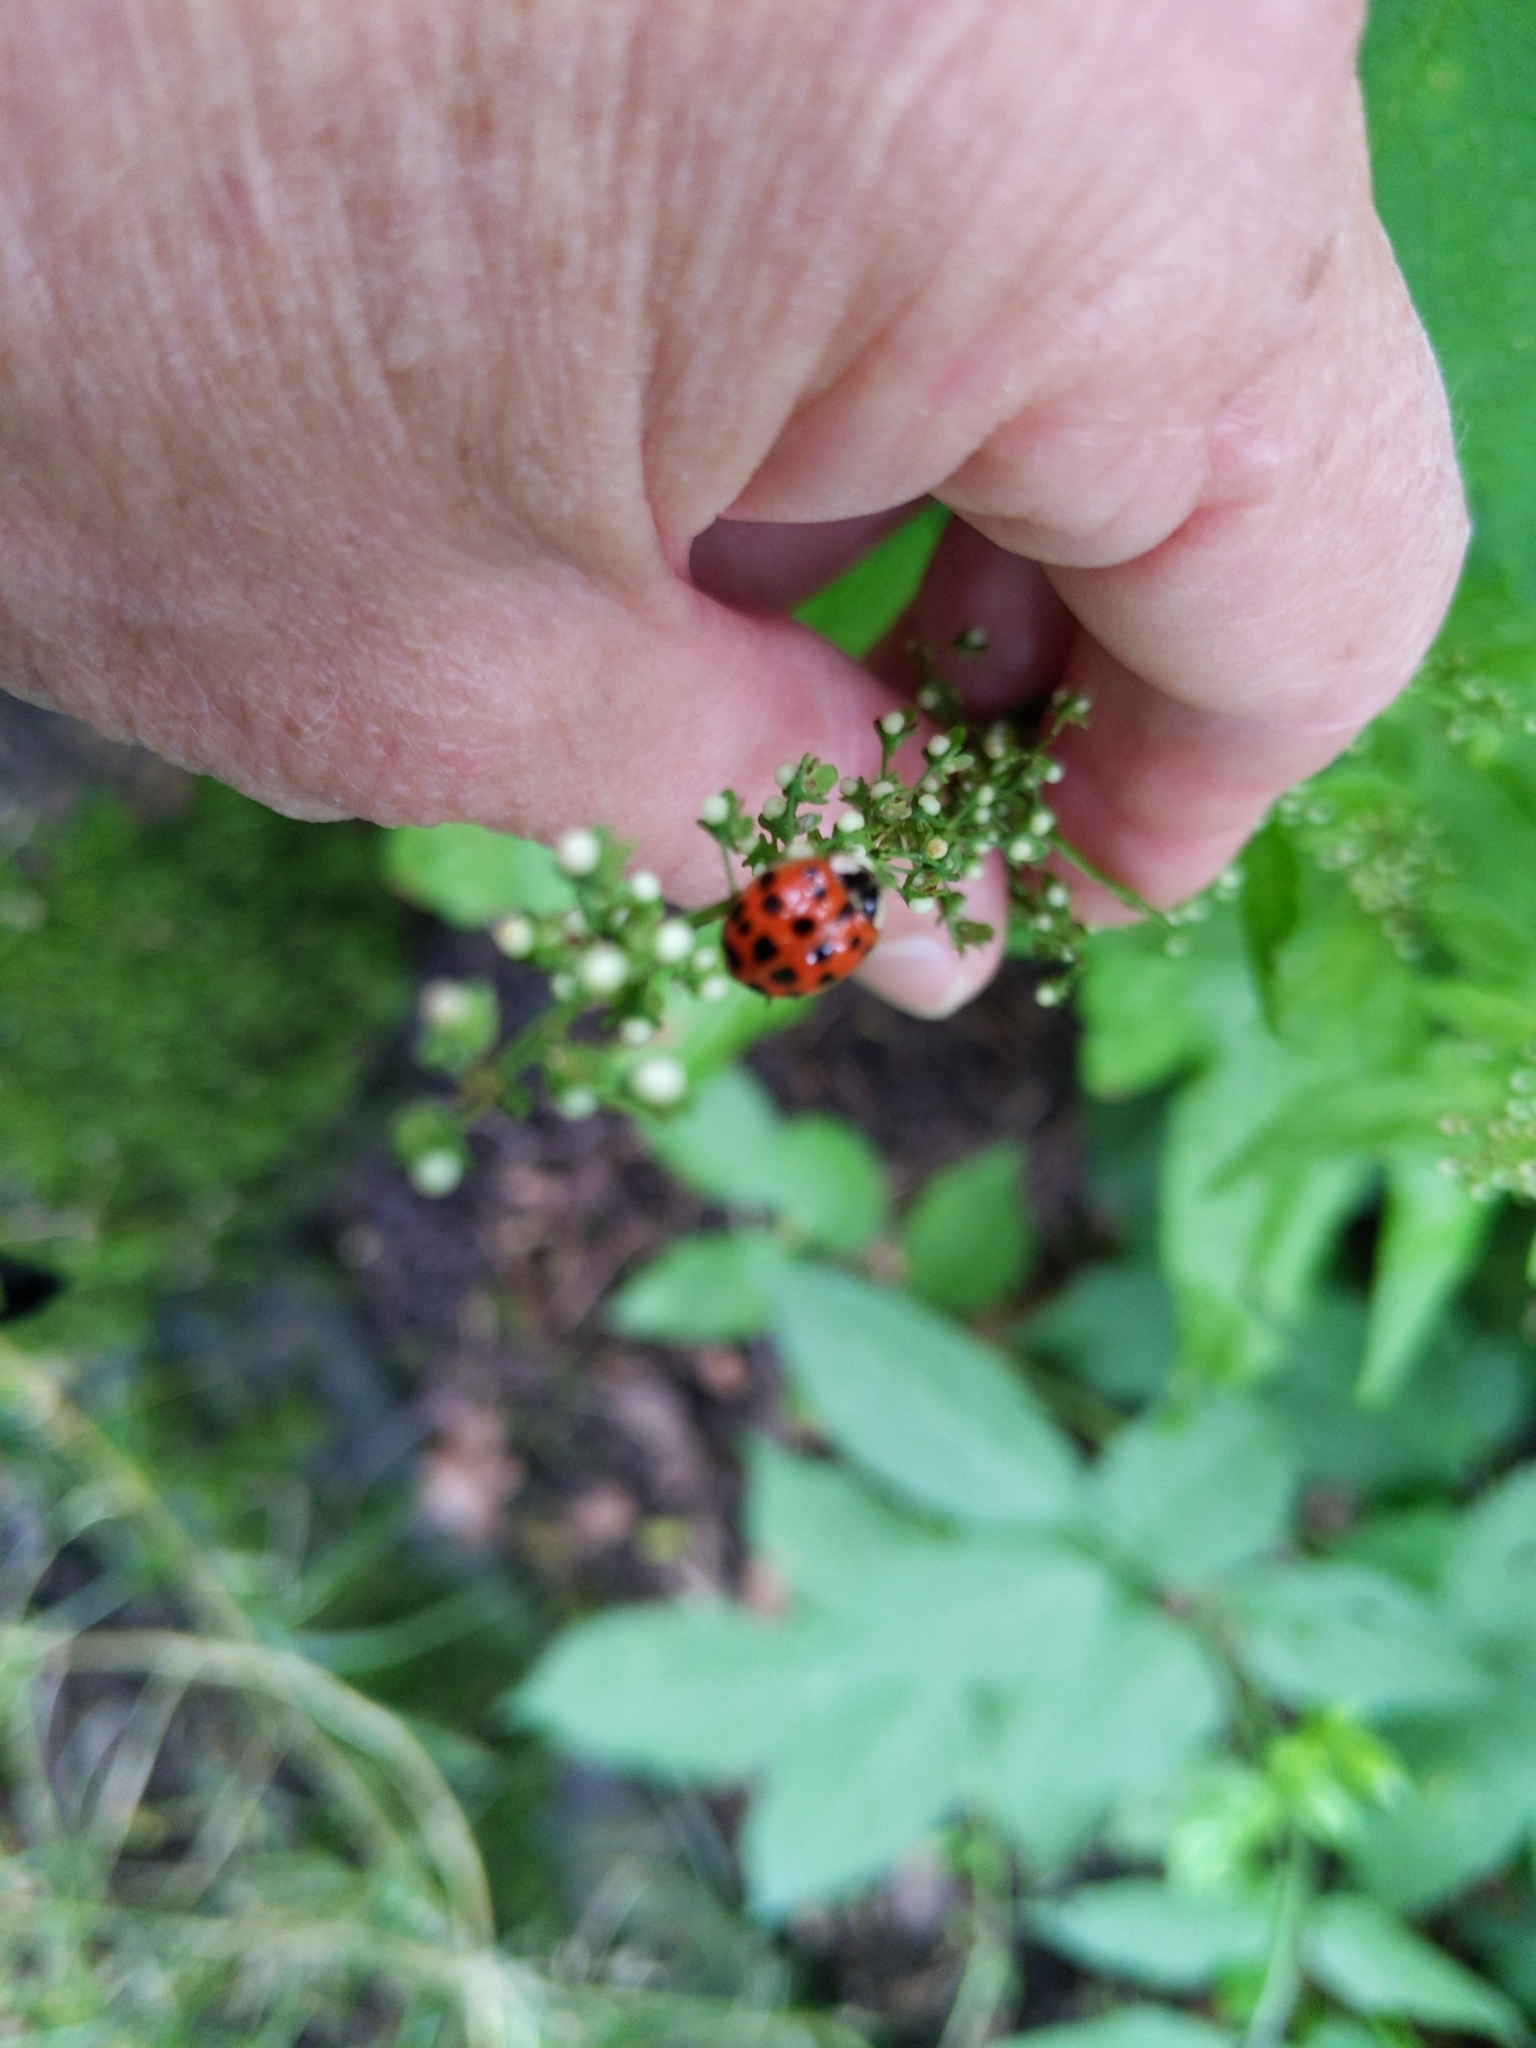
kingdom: Animalia
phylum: Arthropoda
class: Insecta
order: Coleoptera
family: Coccinellidae
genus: Harmonia
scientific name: Harmonia axyridis
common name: Harlequin ladybird
